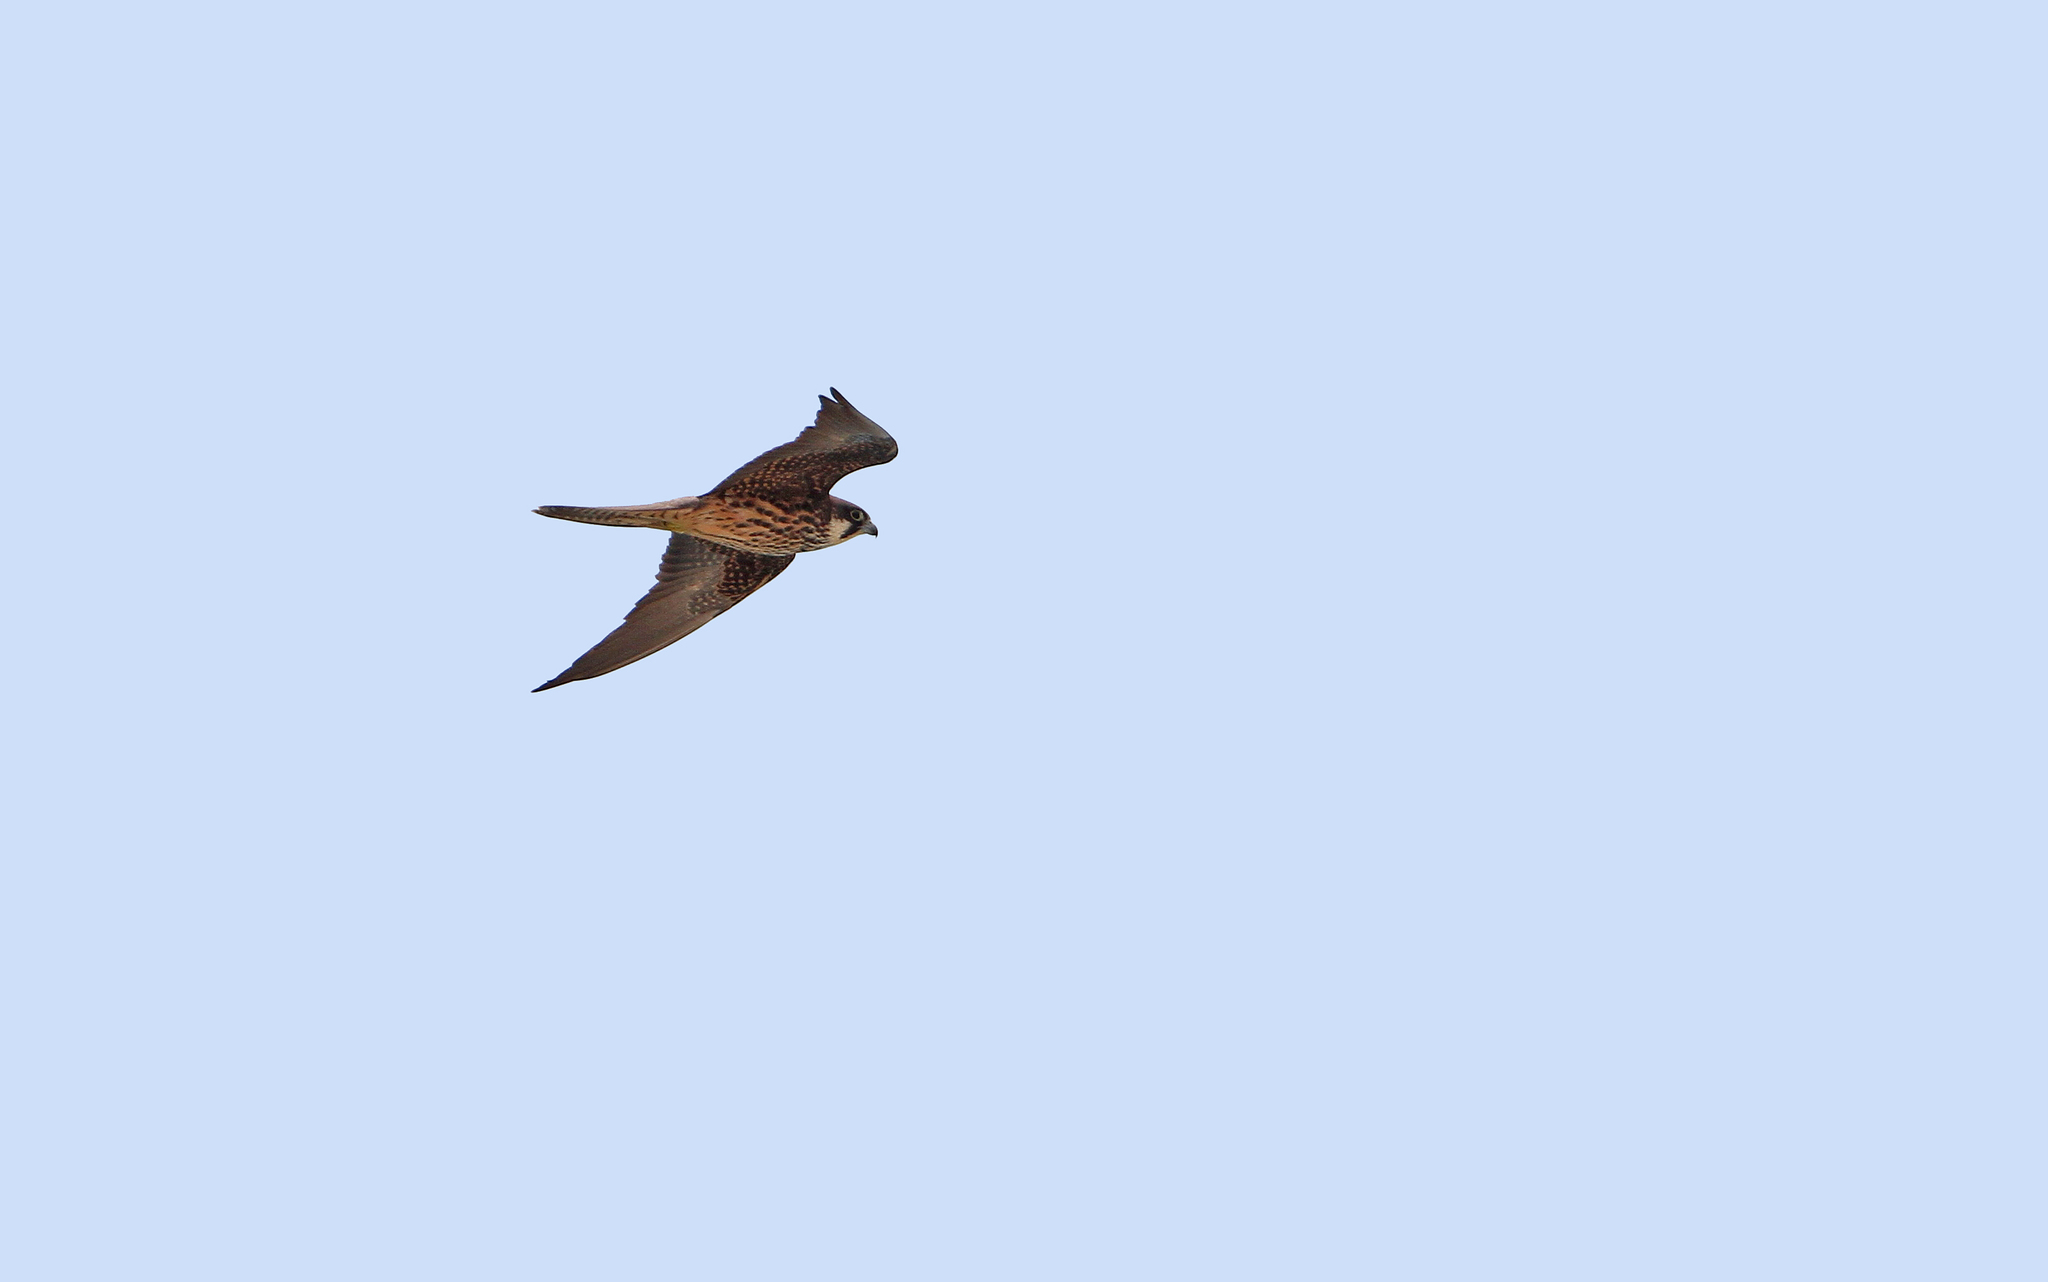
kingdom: Animalia
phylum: Chordata
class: Aves
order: Falconiformes
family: Falconidae
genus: Falco
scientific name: Falco eleonorae
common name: Eleonora's falcon
